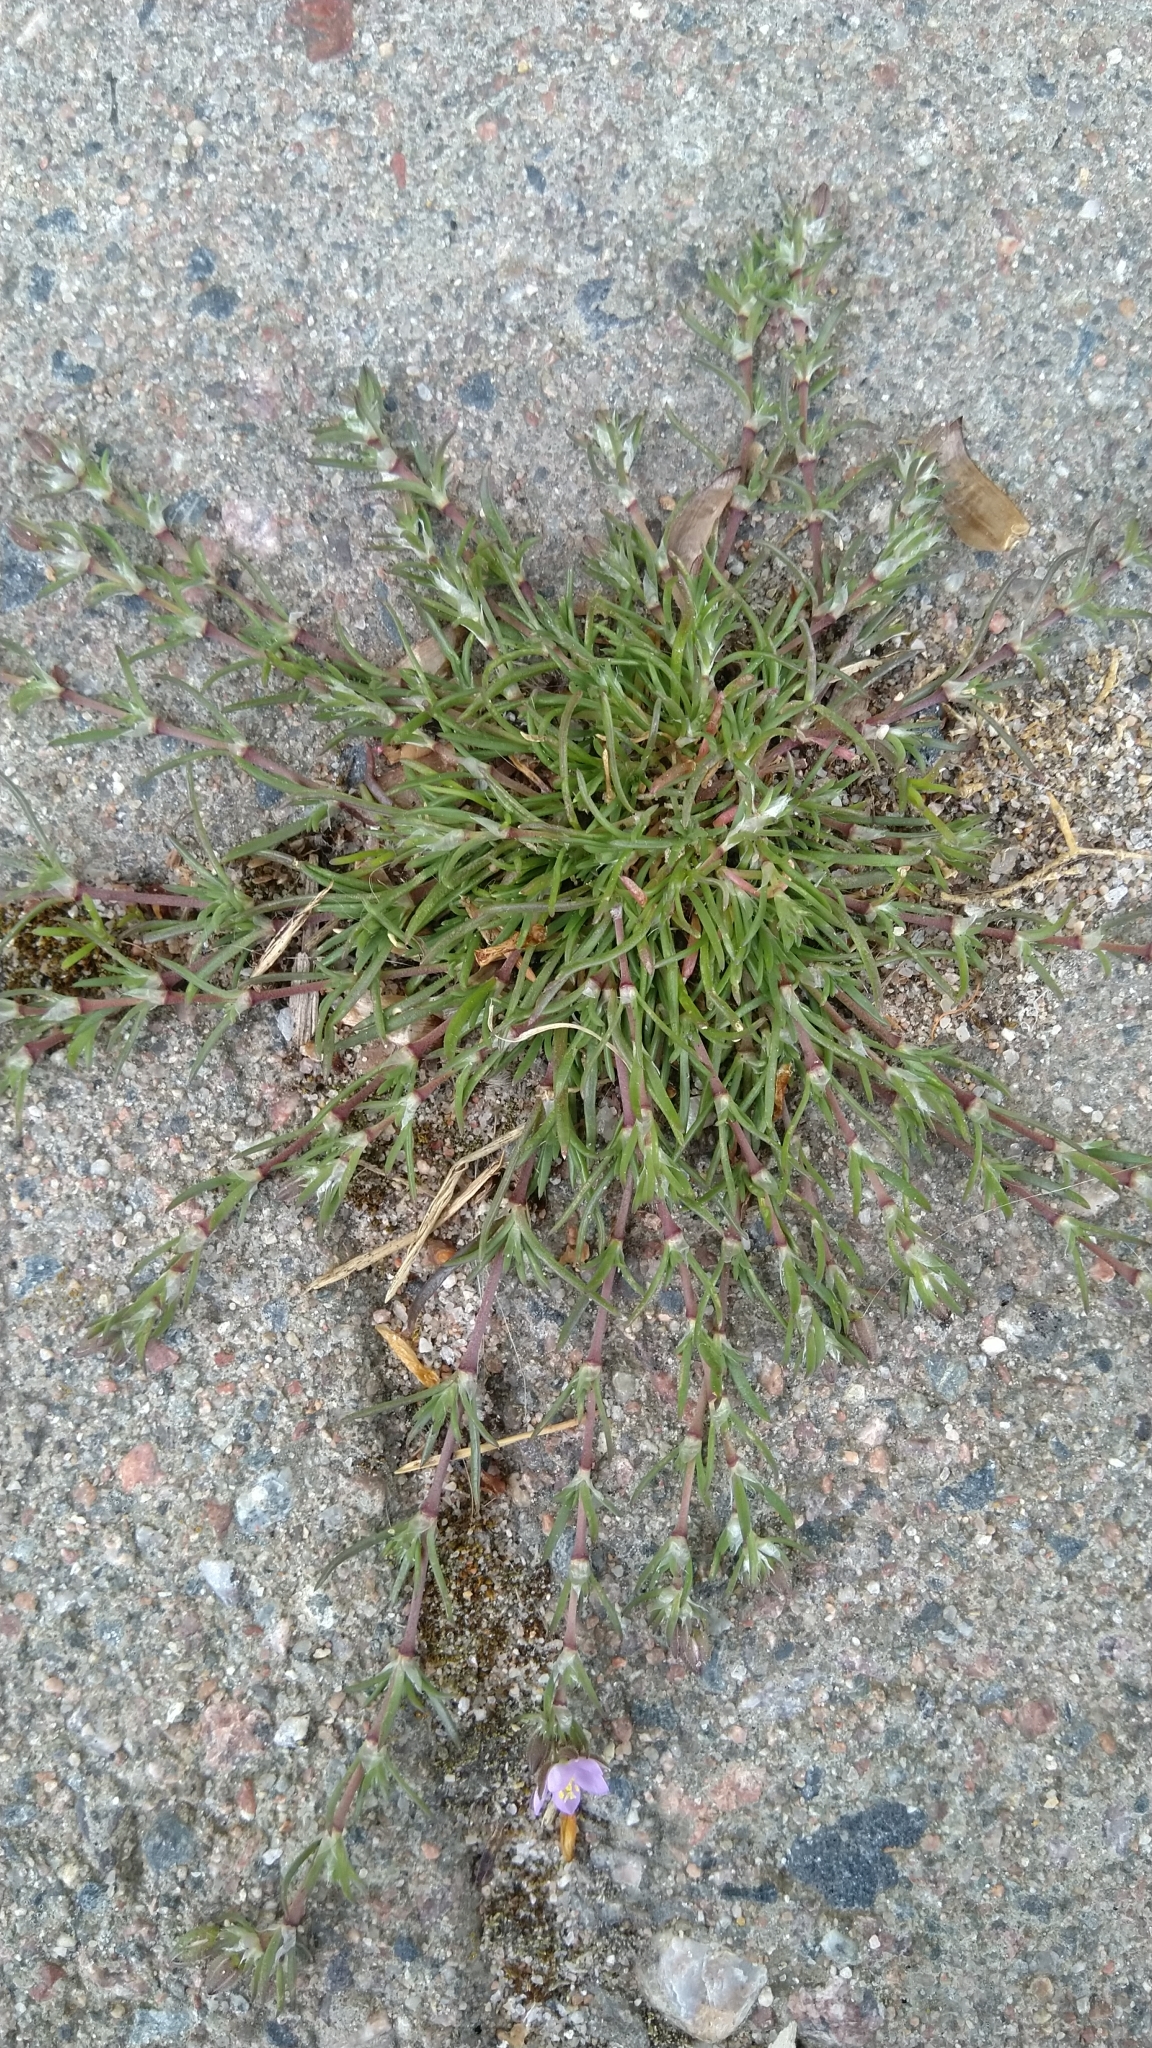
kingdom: Plantae
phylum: Tracheophyta
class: Magnoliopsida
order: Caryophyllales
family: Caryophyllaceae
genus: Spergularia
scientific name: Spergularia rubra
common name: Red sand-spurrey
